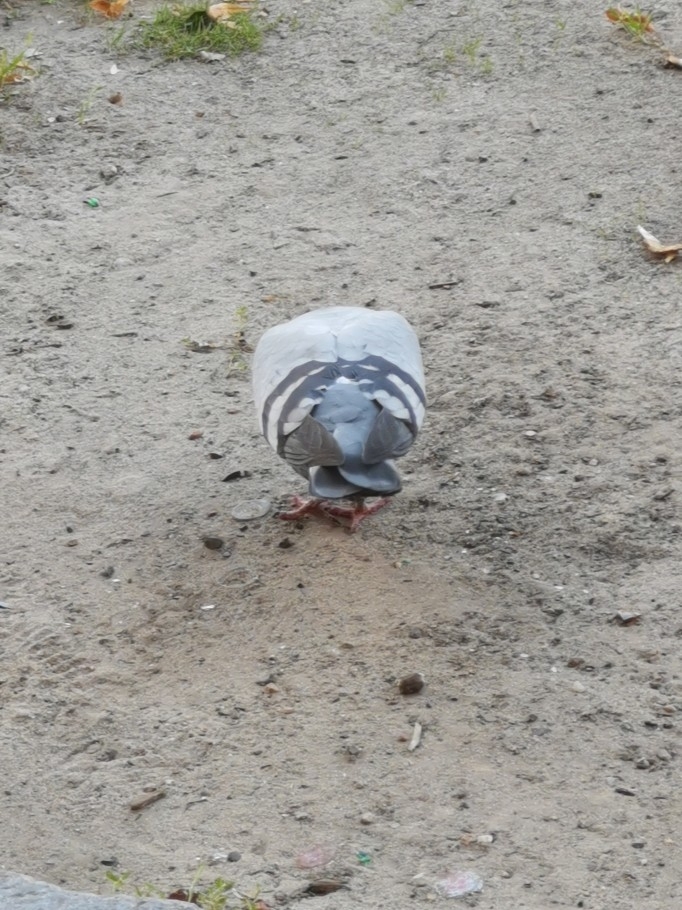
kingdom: Animalia
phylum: Chordata
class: Aves
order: Columbiformes
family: Columbidae
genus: Columba
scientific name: Columba livia
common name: Rock pigeon
